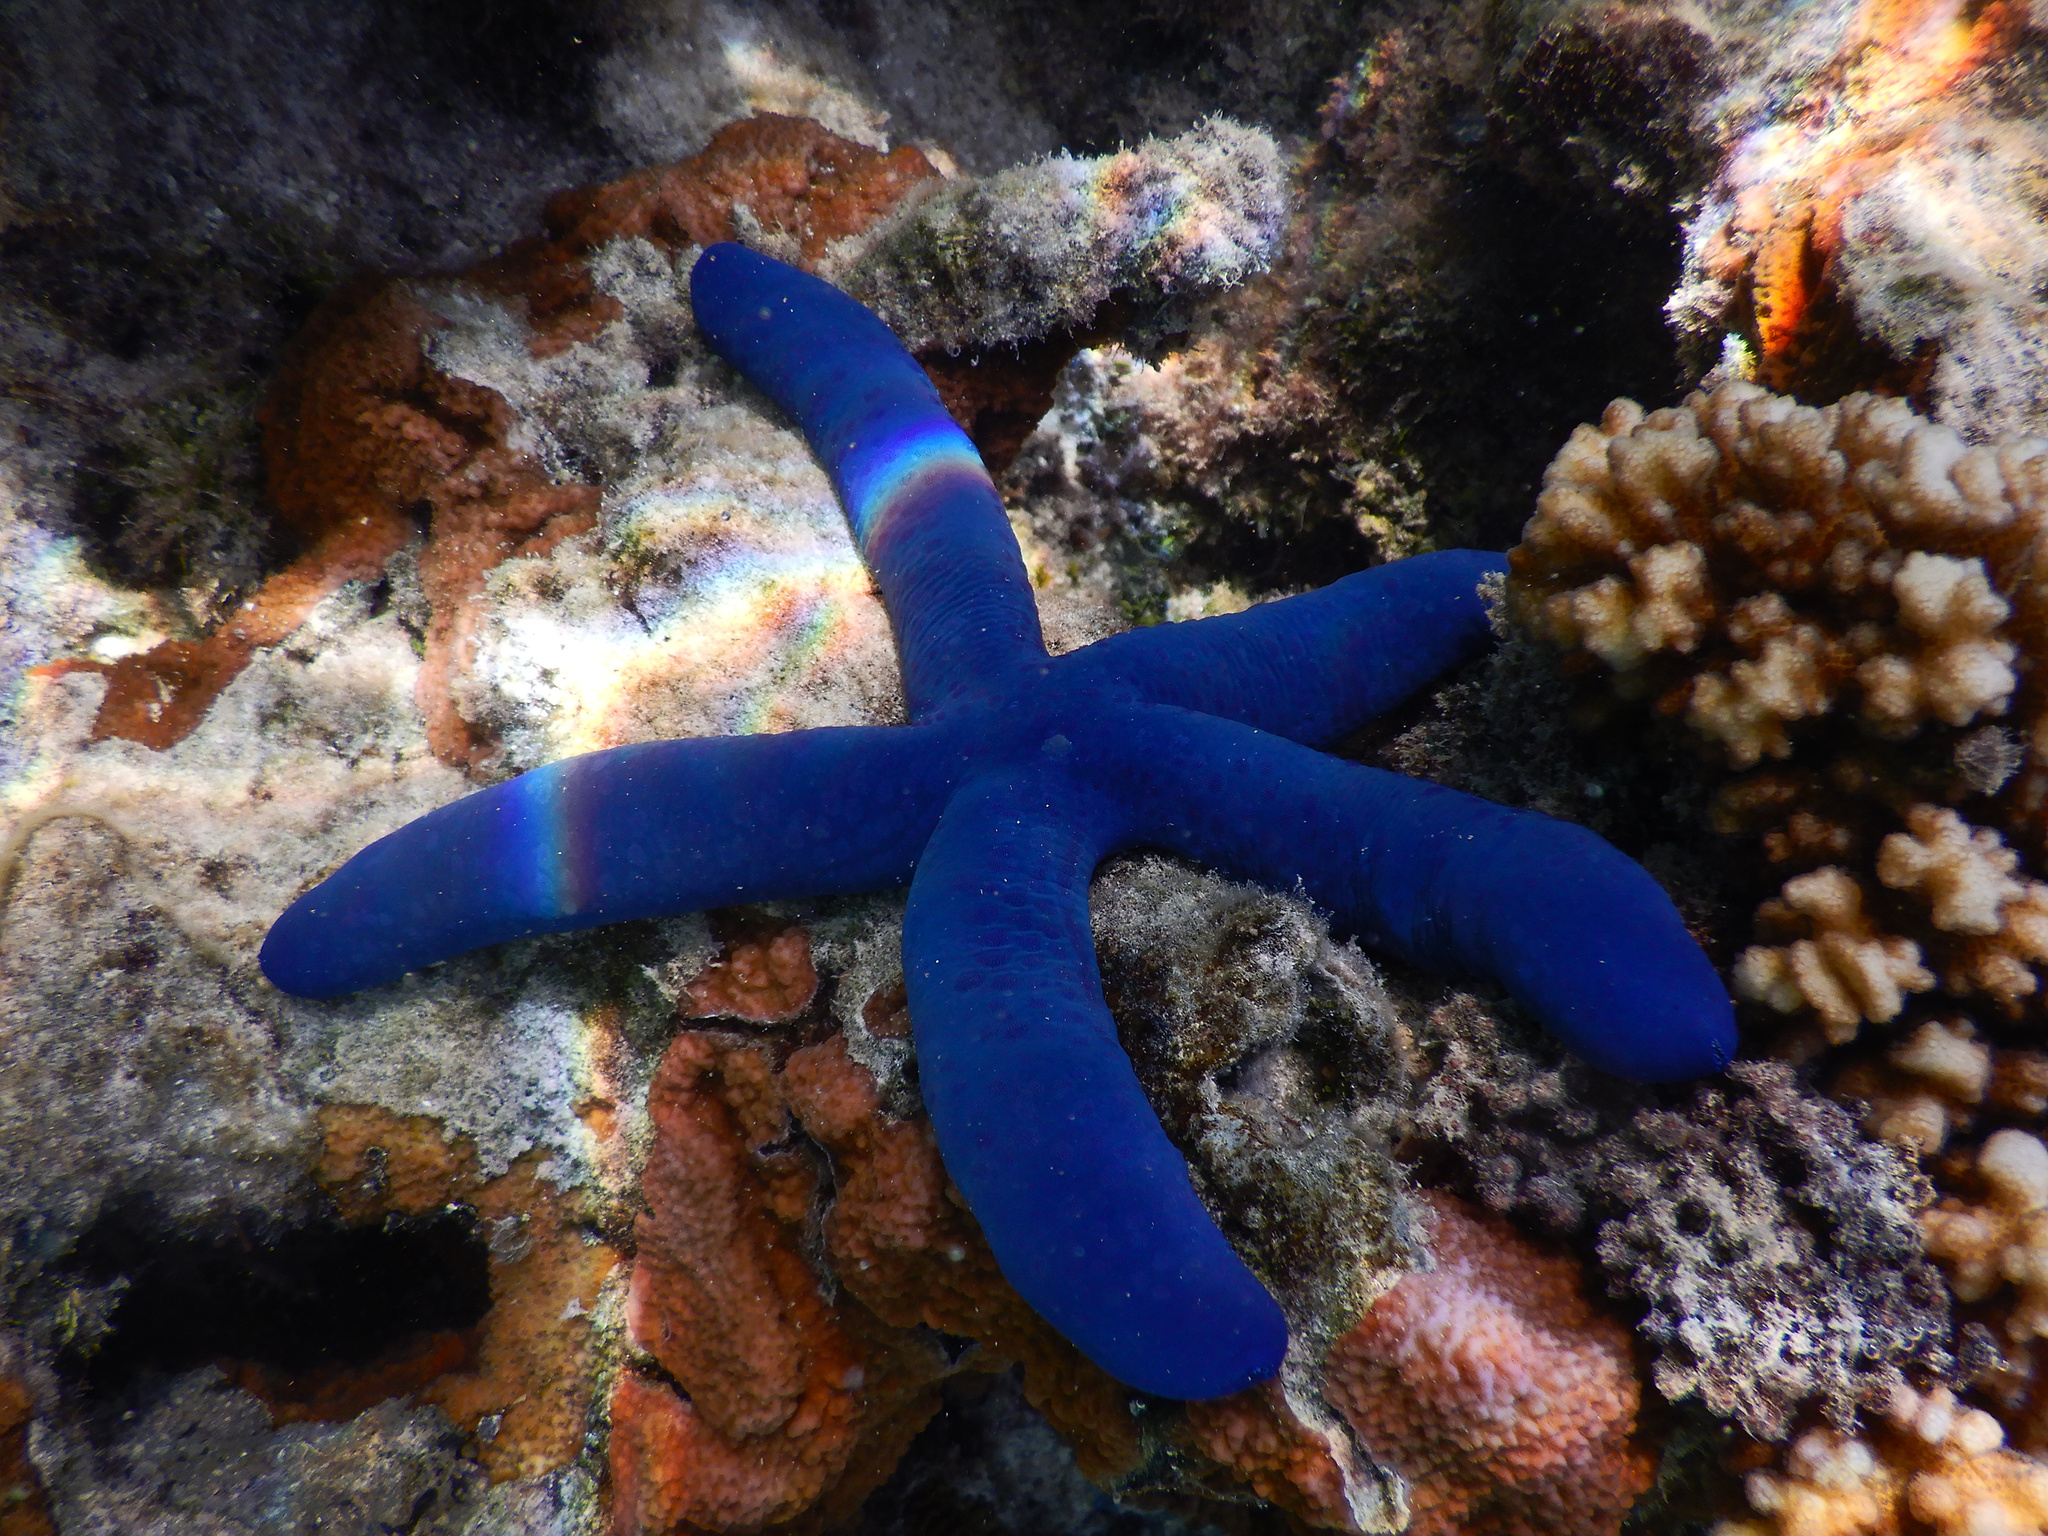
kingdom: Animalia
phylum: Echinodermata
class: Asteroidea
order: Valvatida
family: Ophidiasteridae
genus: Linckia
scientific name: Linckia laevigata
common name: Azure sea star
